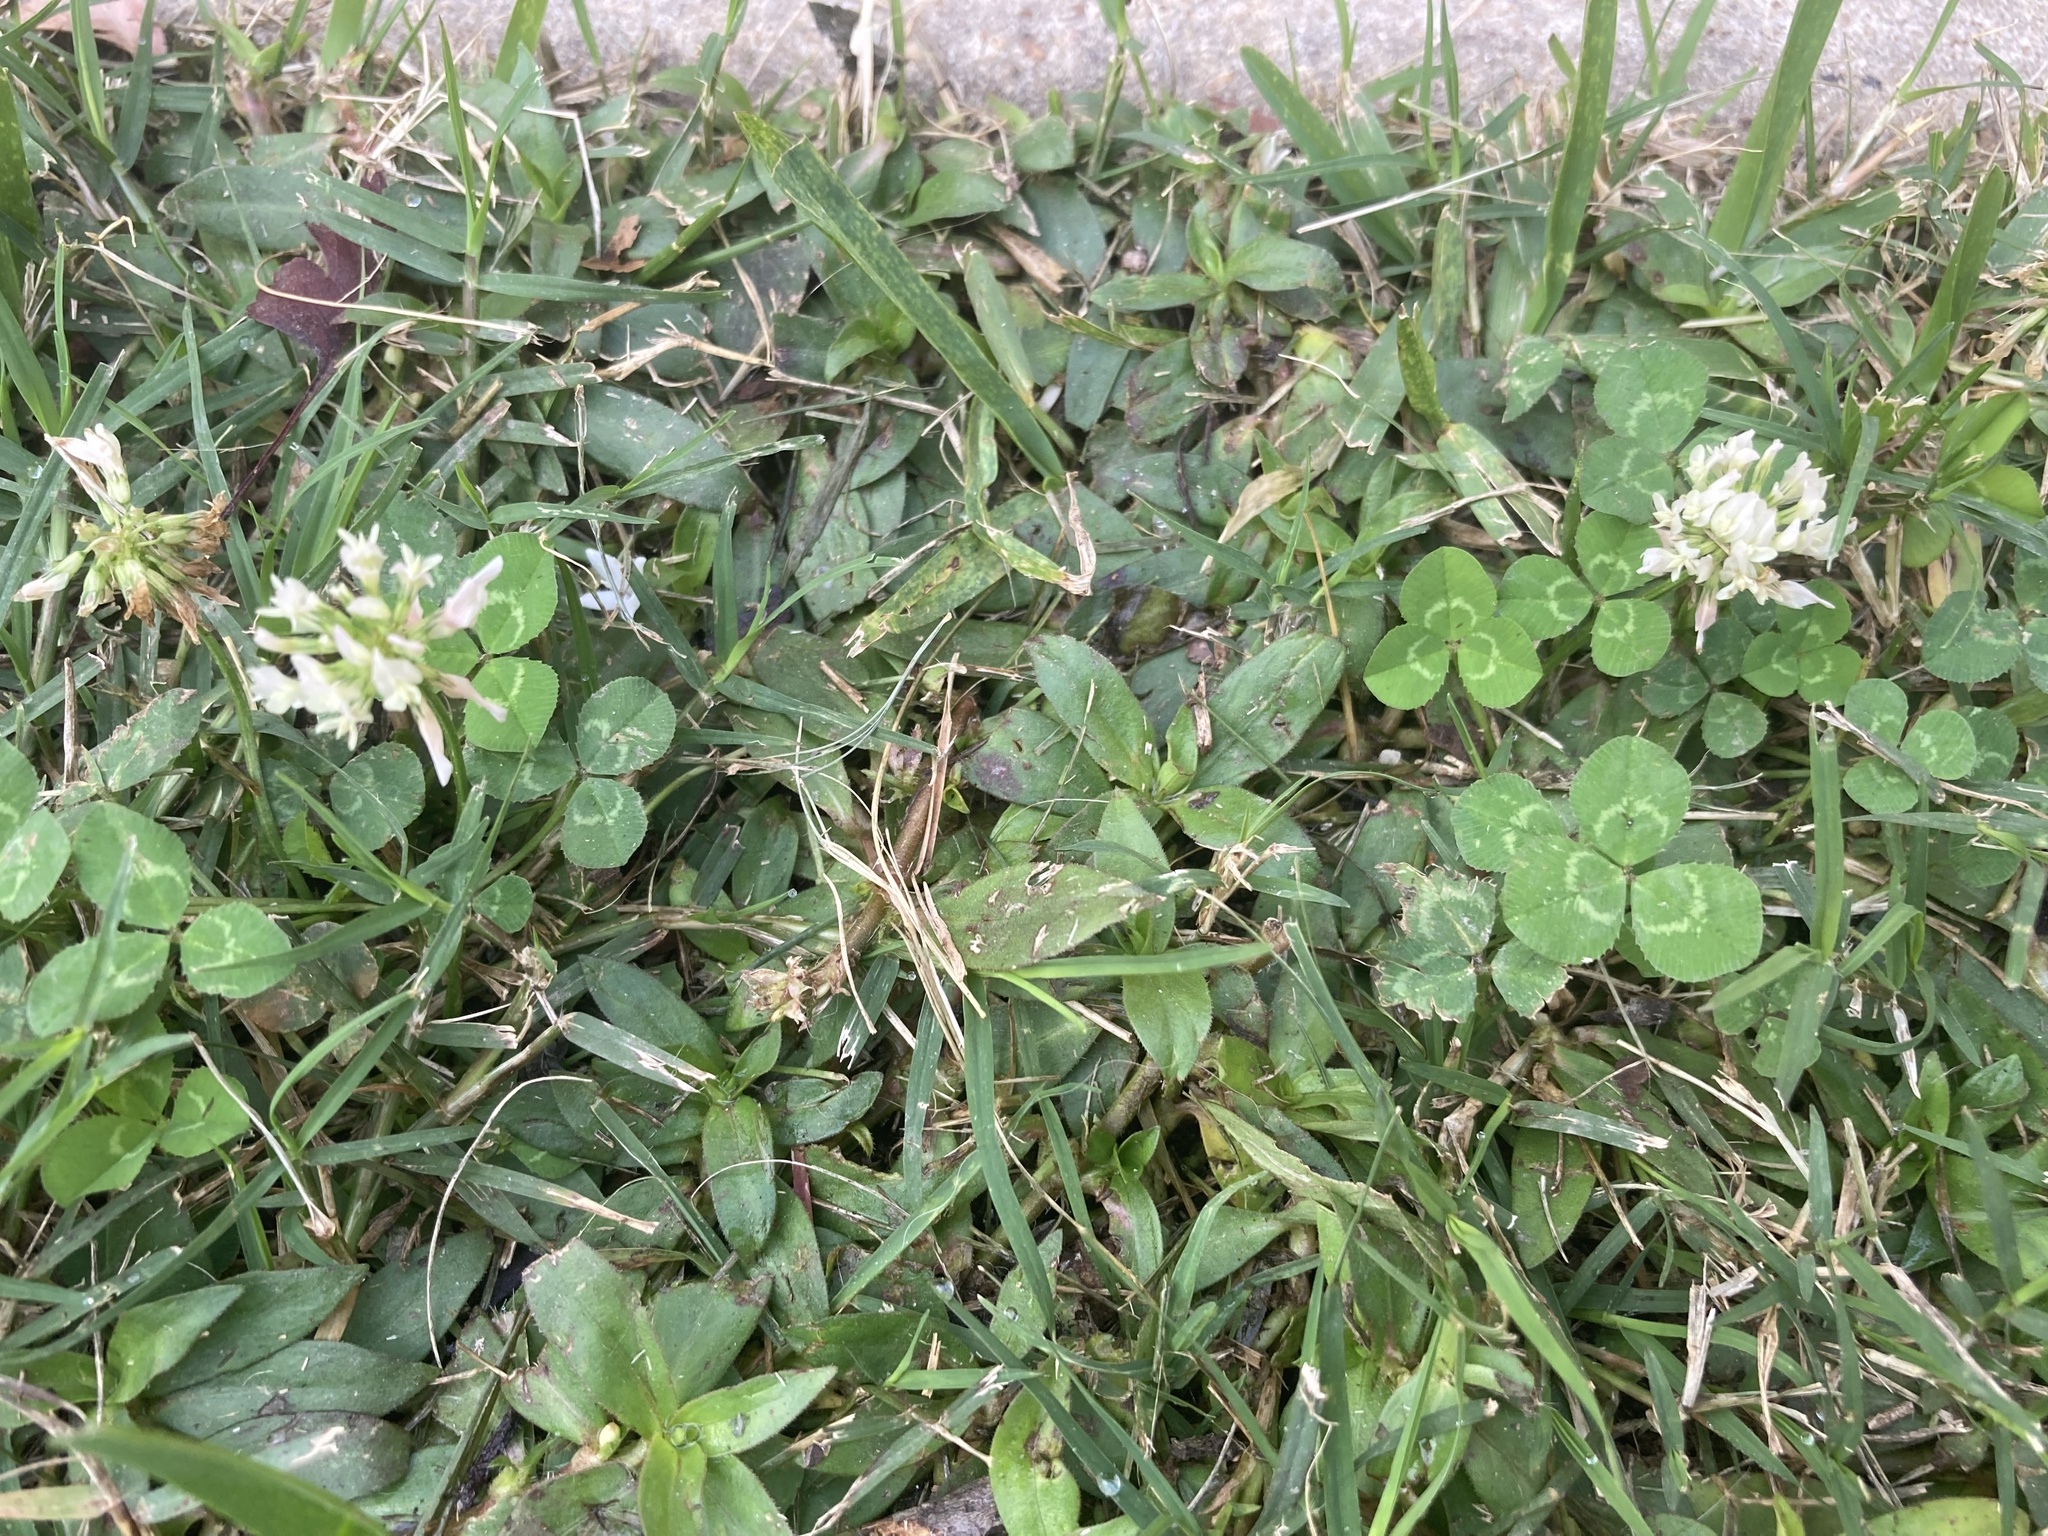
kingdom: Plantae
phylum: Tracheophyta
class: Magnoliopsida
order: Fabales
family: Fabaceae
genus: Trifolium
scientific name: Trifolium repens
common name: White clover
